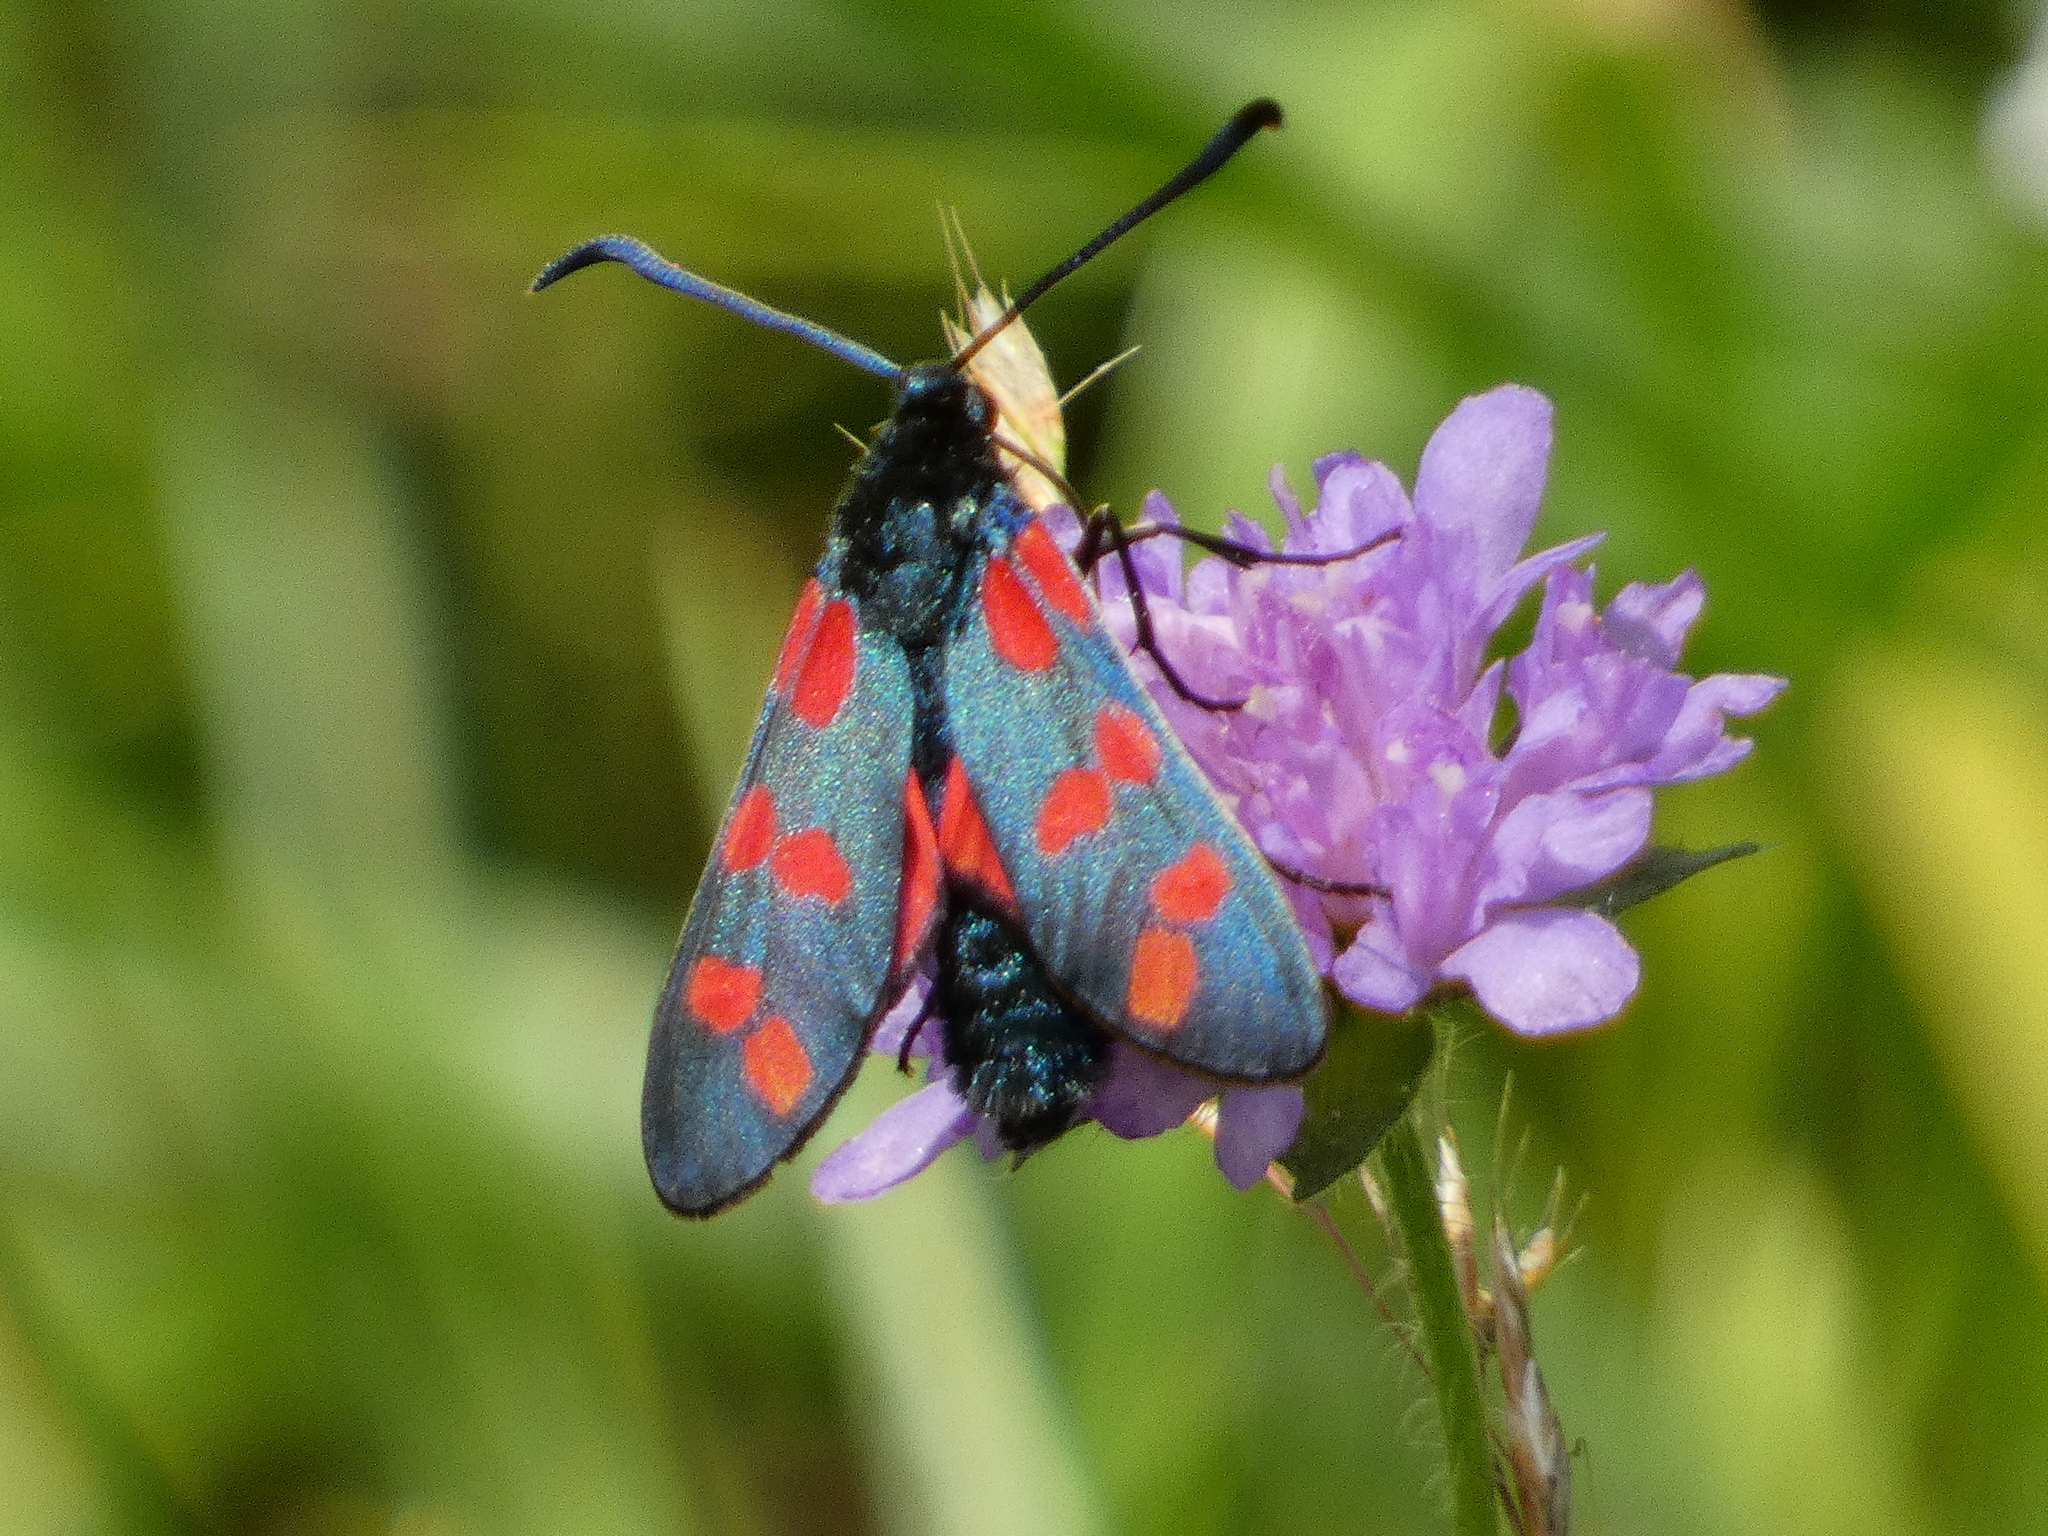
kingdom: Animalia
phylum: Arthropoda
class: Insecta
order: Lepidoptera
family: Zygaenidae
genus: Zygaena
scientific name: Zygaena filipendulae
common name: Six-spot burnet
